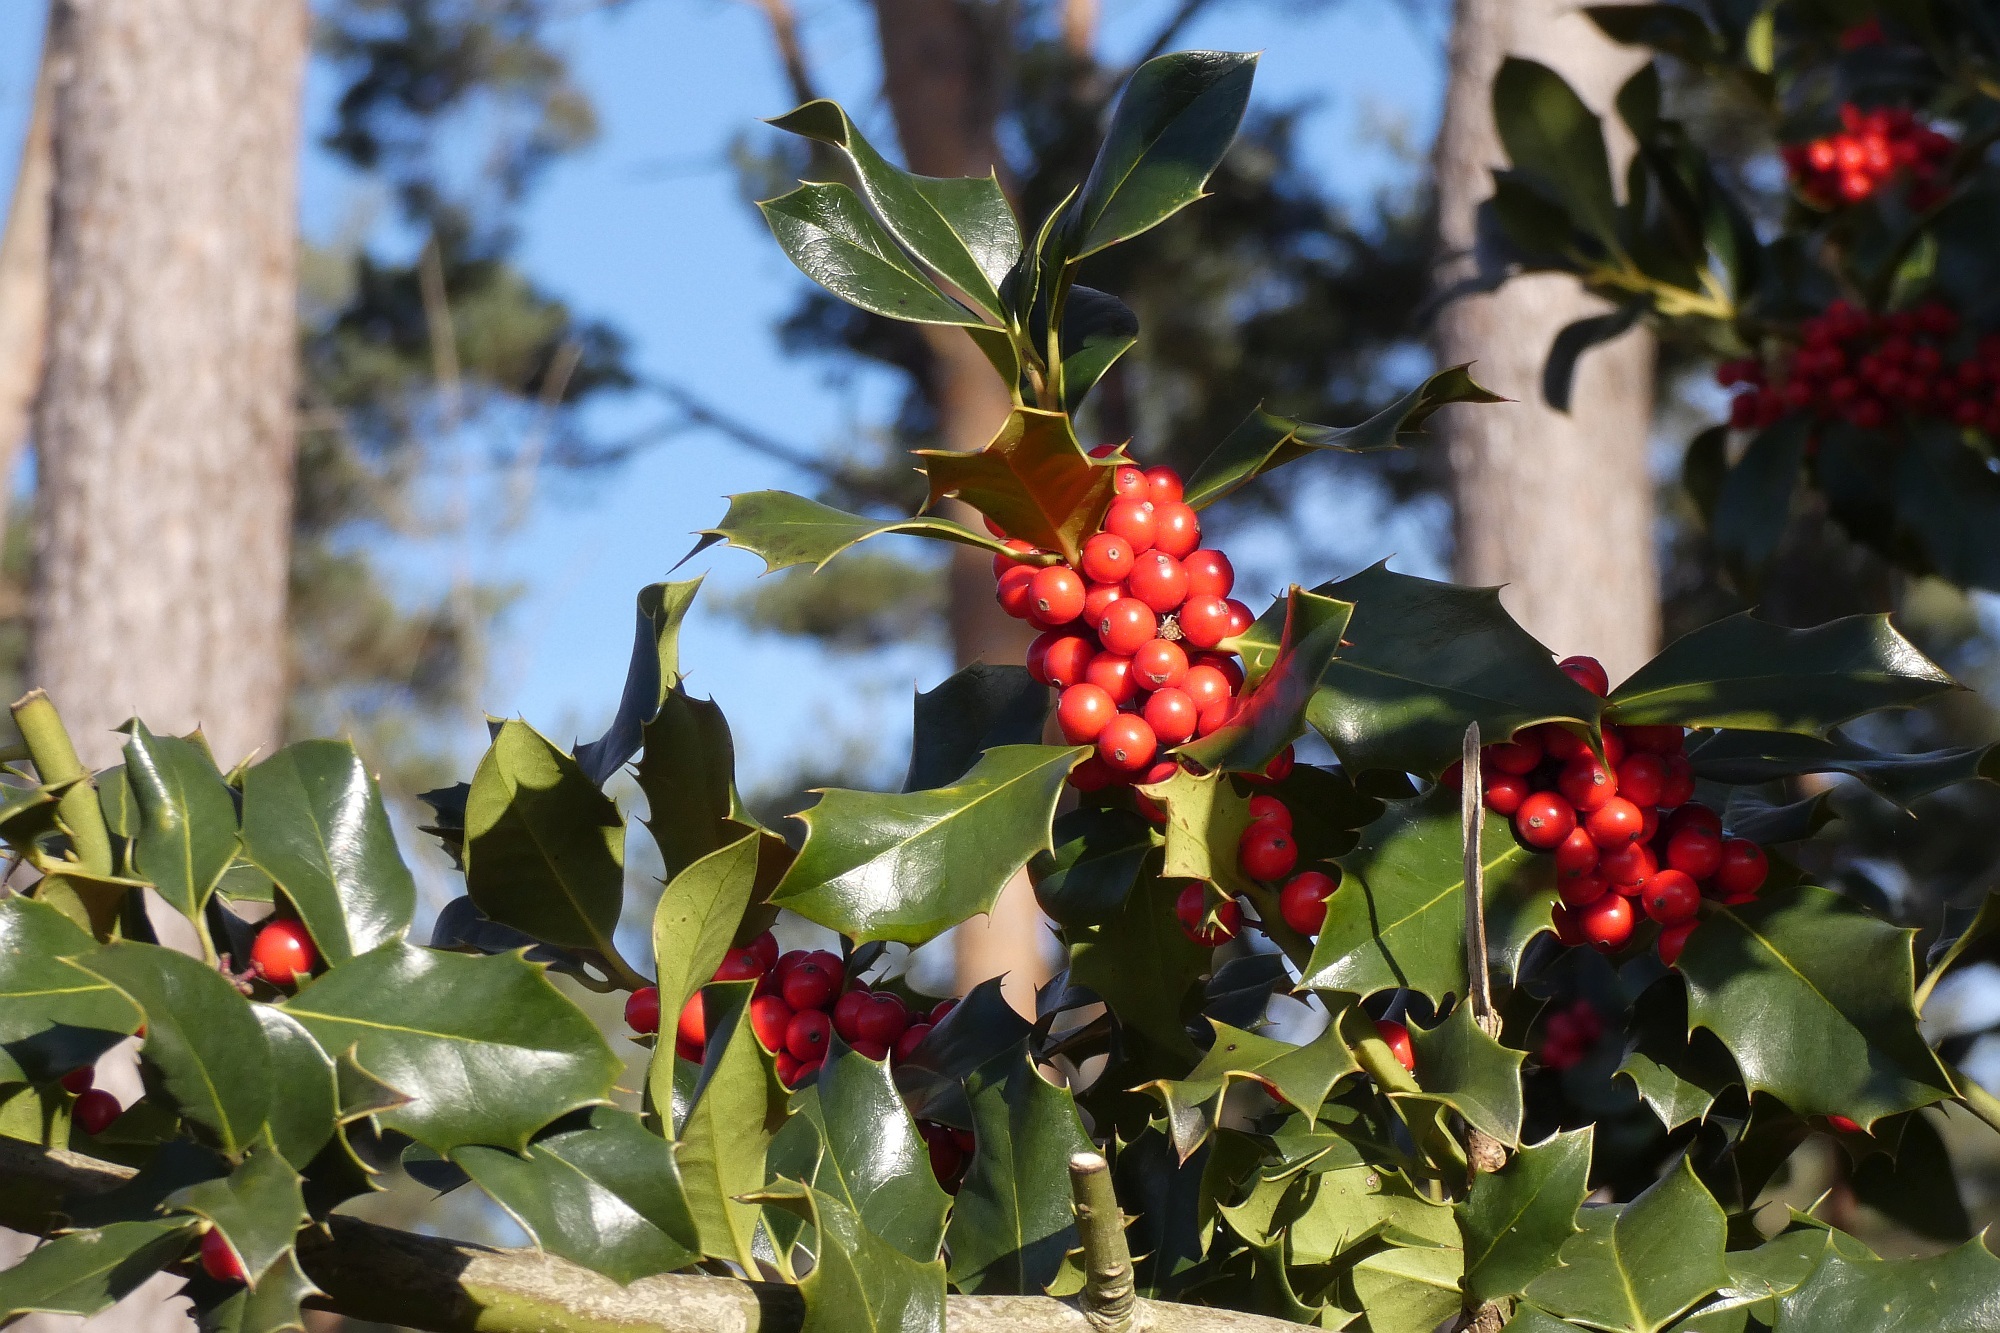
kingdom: Plantae
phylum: Tracheophyta
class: Magnoliopsida
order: Aquifoliales
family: Aquifoliaceae
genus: Ilex
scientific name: Ilex aquifolium
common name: English holly
